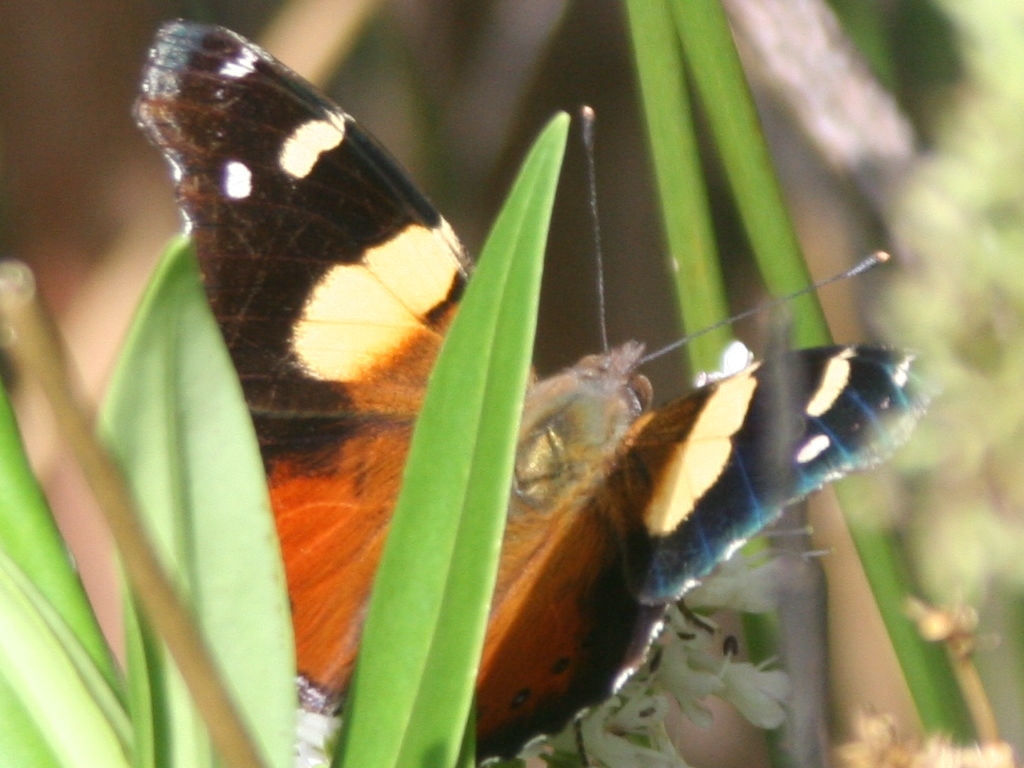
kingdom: Animalia
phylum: Arthropoda
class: Insecta
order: Lepidoptera
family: Nymphalidae
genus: Vanessa
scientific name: Vanessa itea
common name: Yellow admiral
